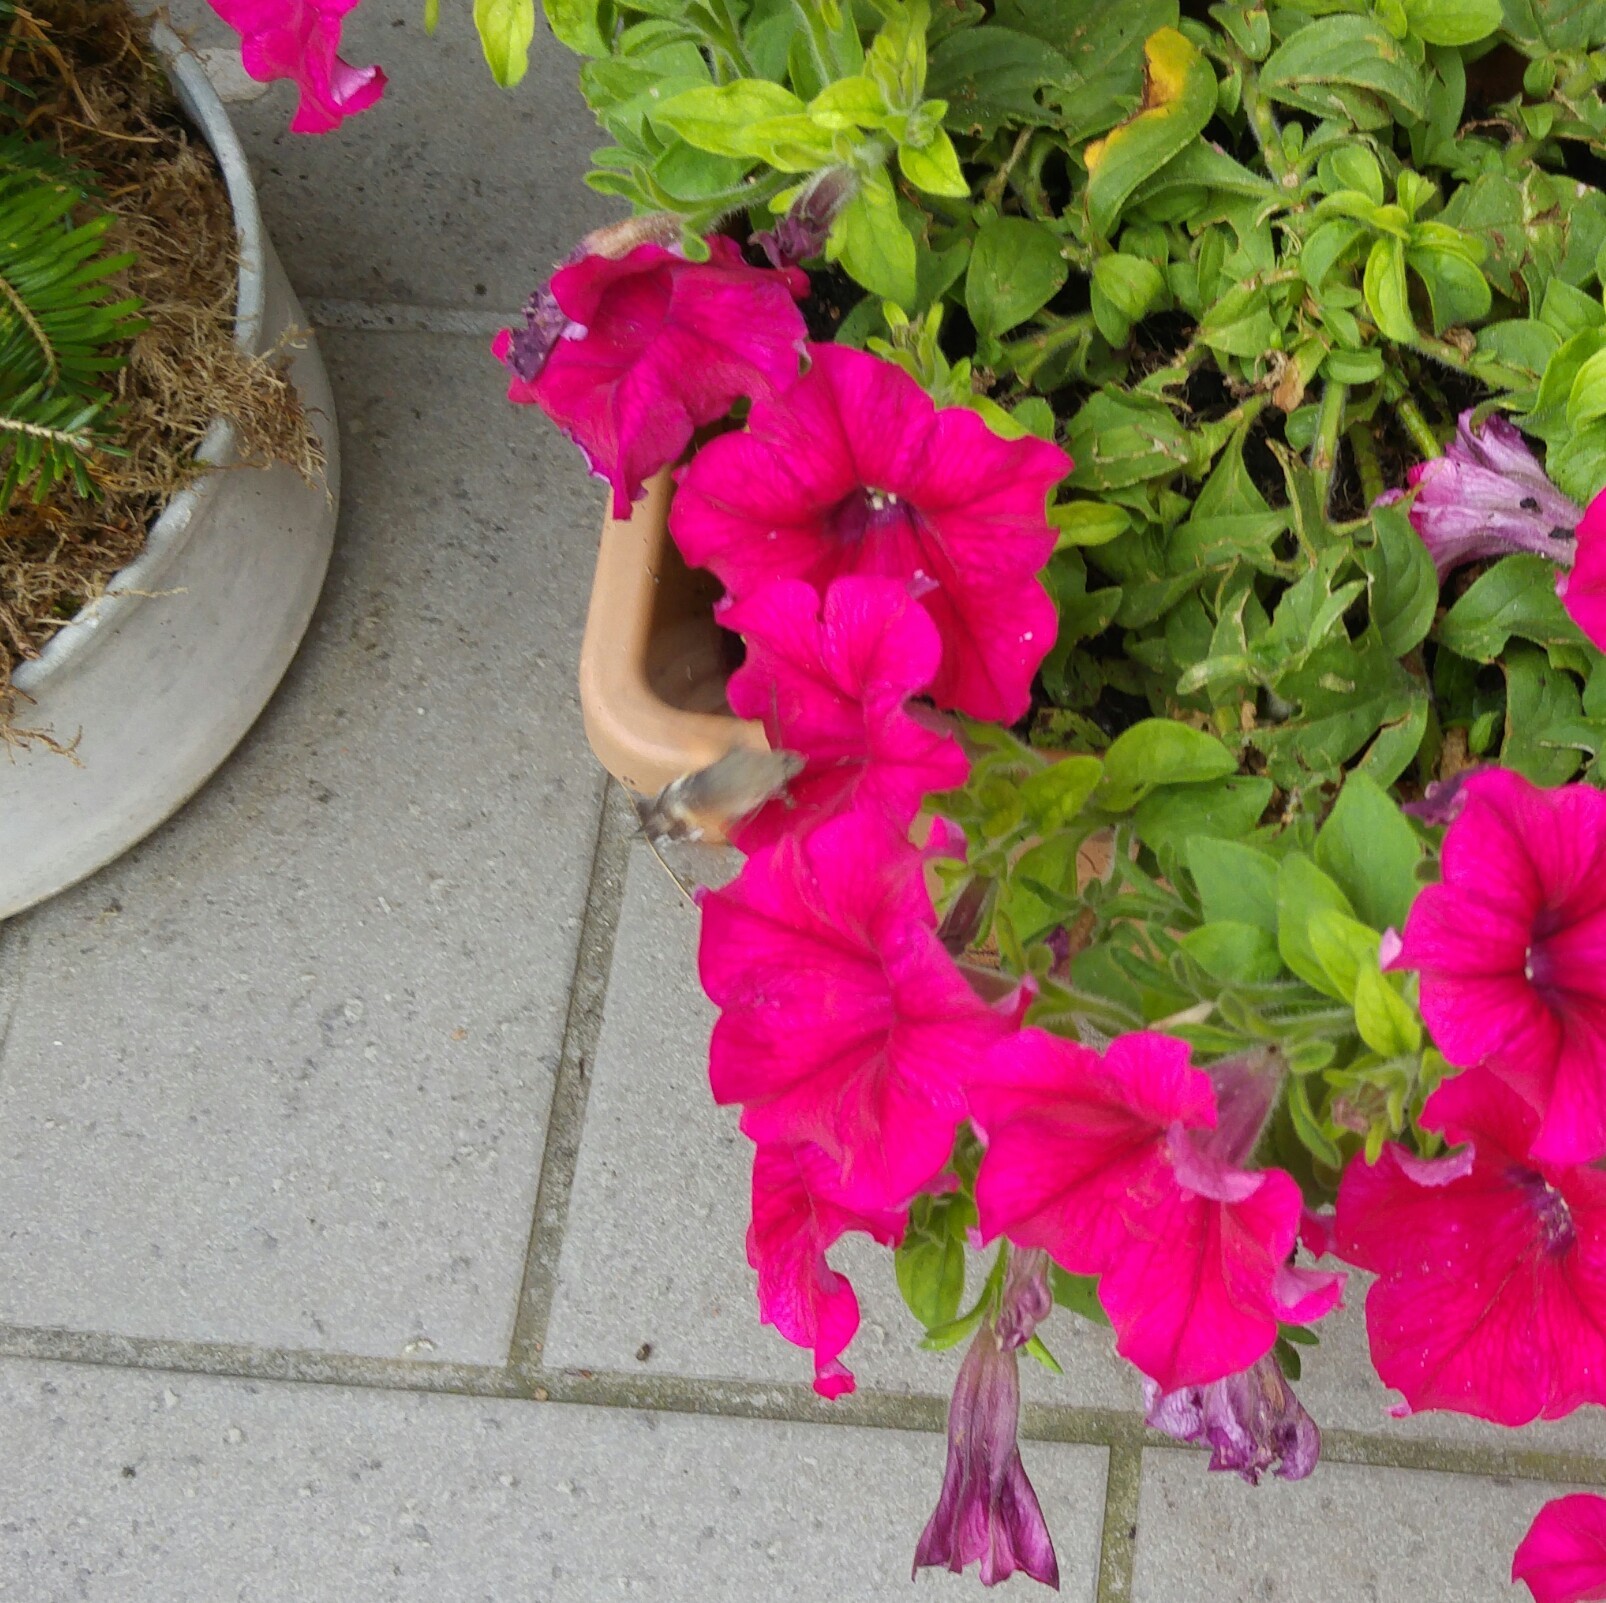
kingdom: Animalia
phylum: Arthropoda
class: Insecta
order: Lepidoptera
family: Sphingidae
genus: Macroglossum
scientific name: Macroglossum stellatarum
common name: Humming-bird hawk-moth
